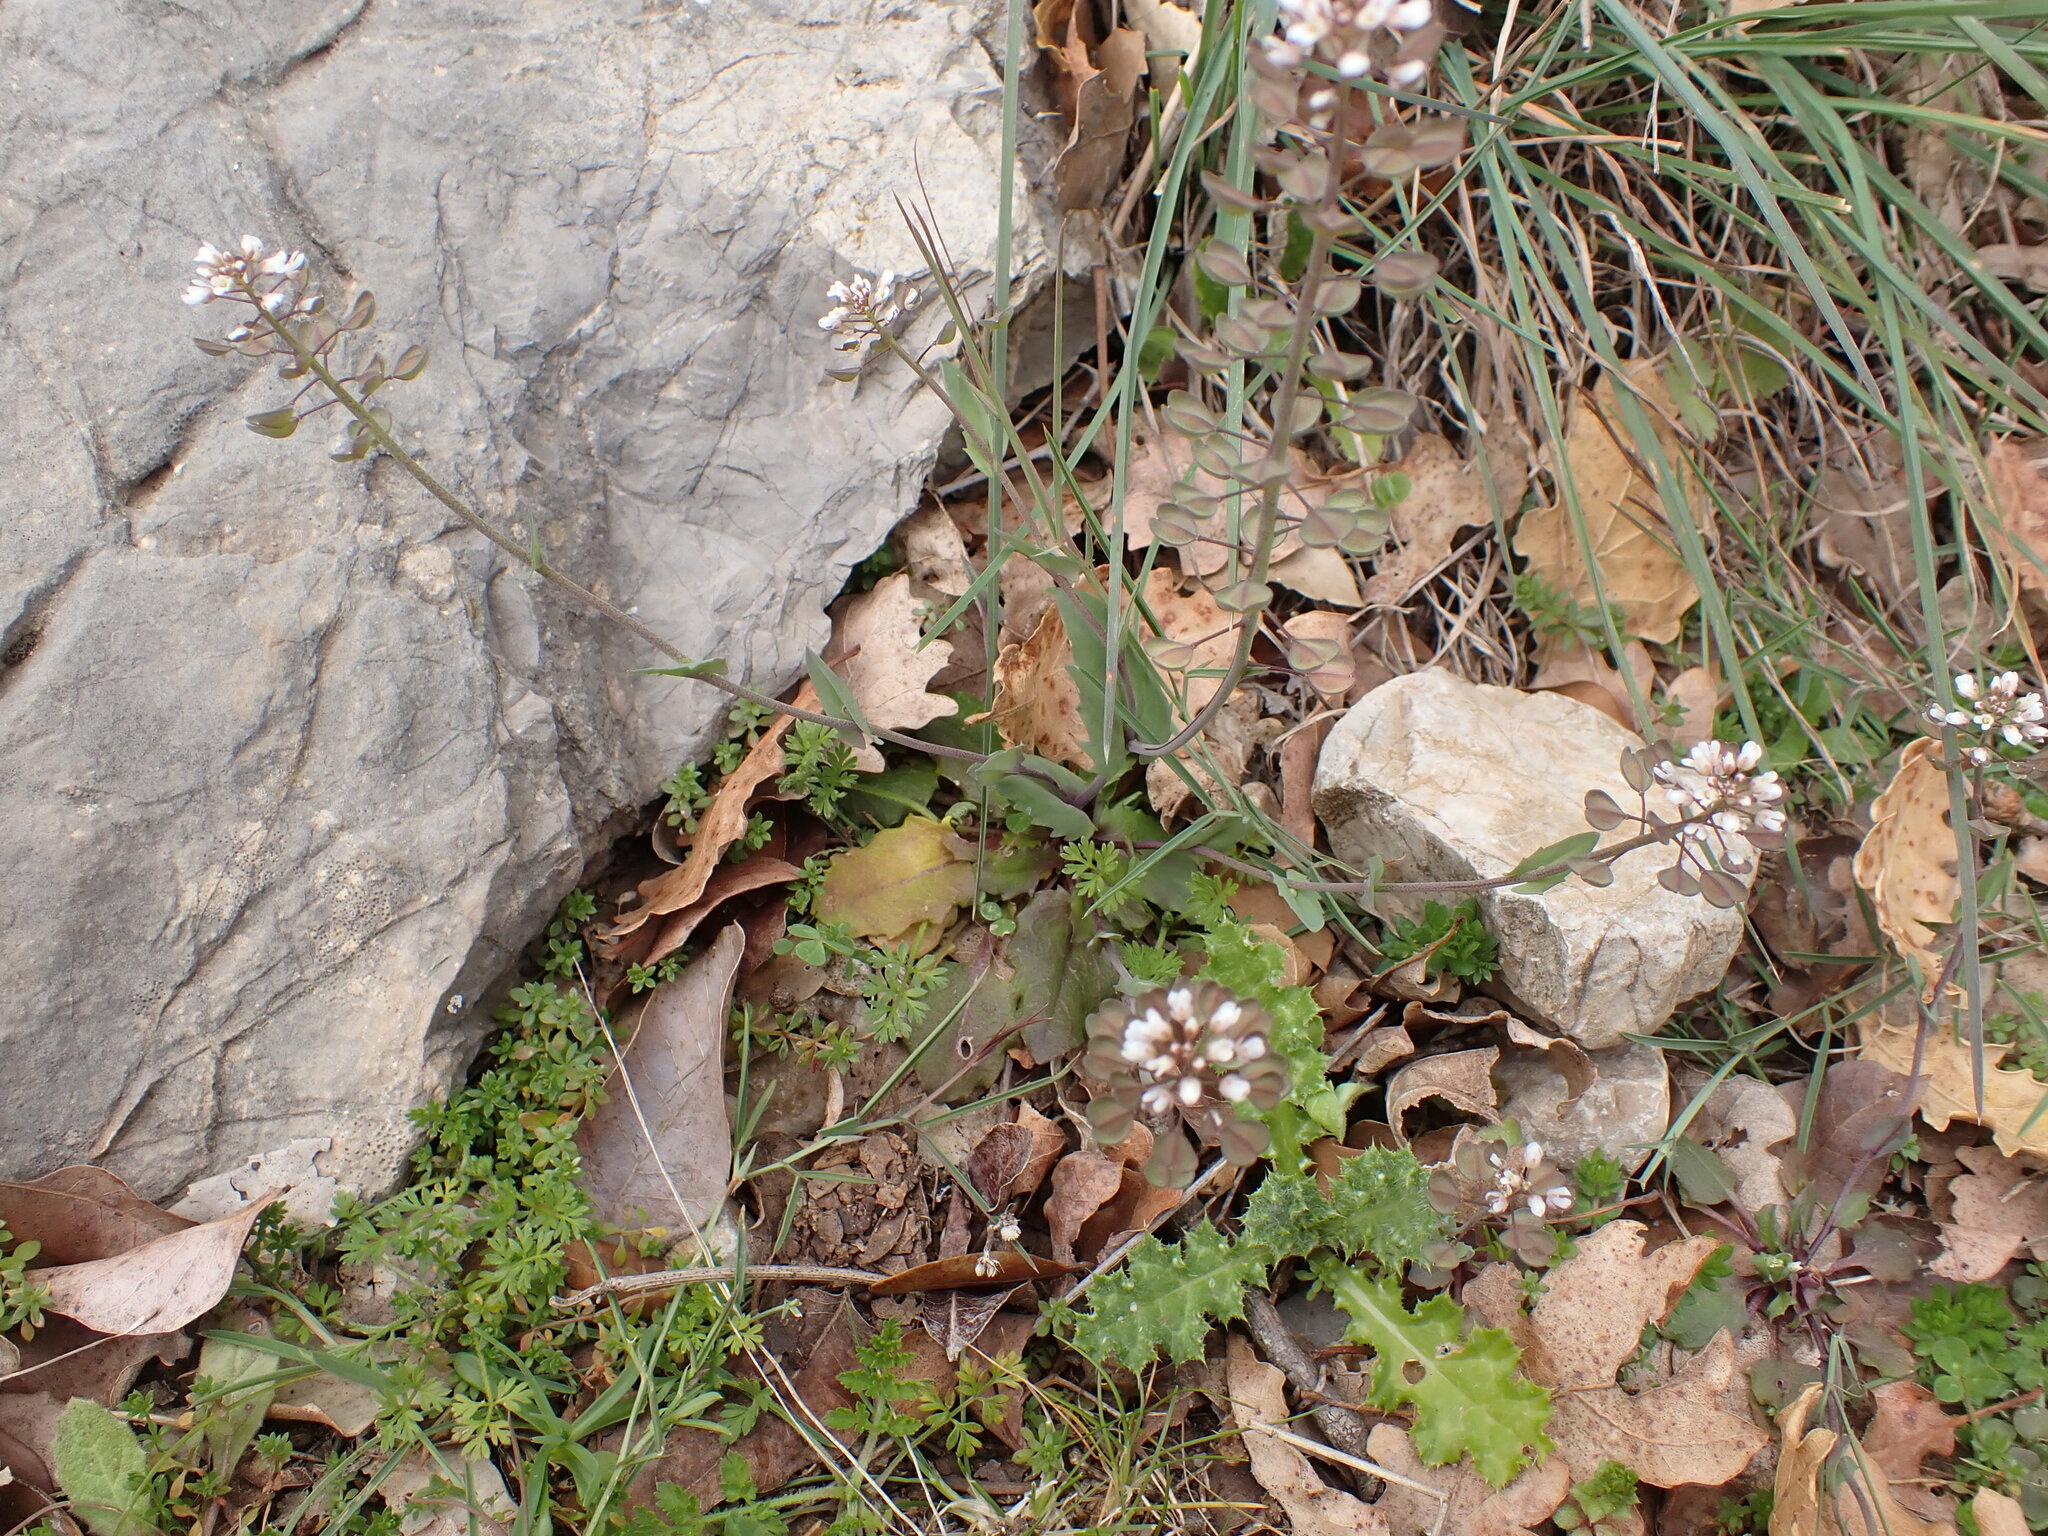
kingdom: Plantae
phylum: Tracheophyta
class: Magnoliopsida
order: Brassicales
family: Brassicaceae
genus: Noccaea
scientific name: Noccaea perfoliata
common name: Perfoliate pennycress
